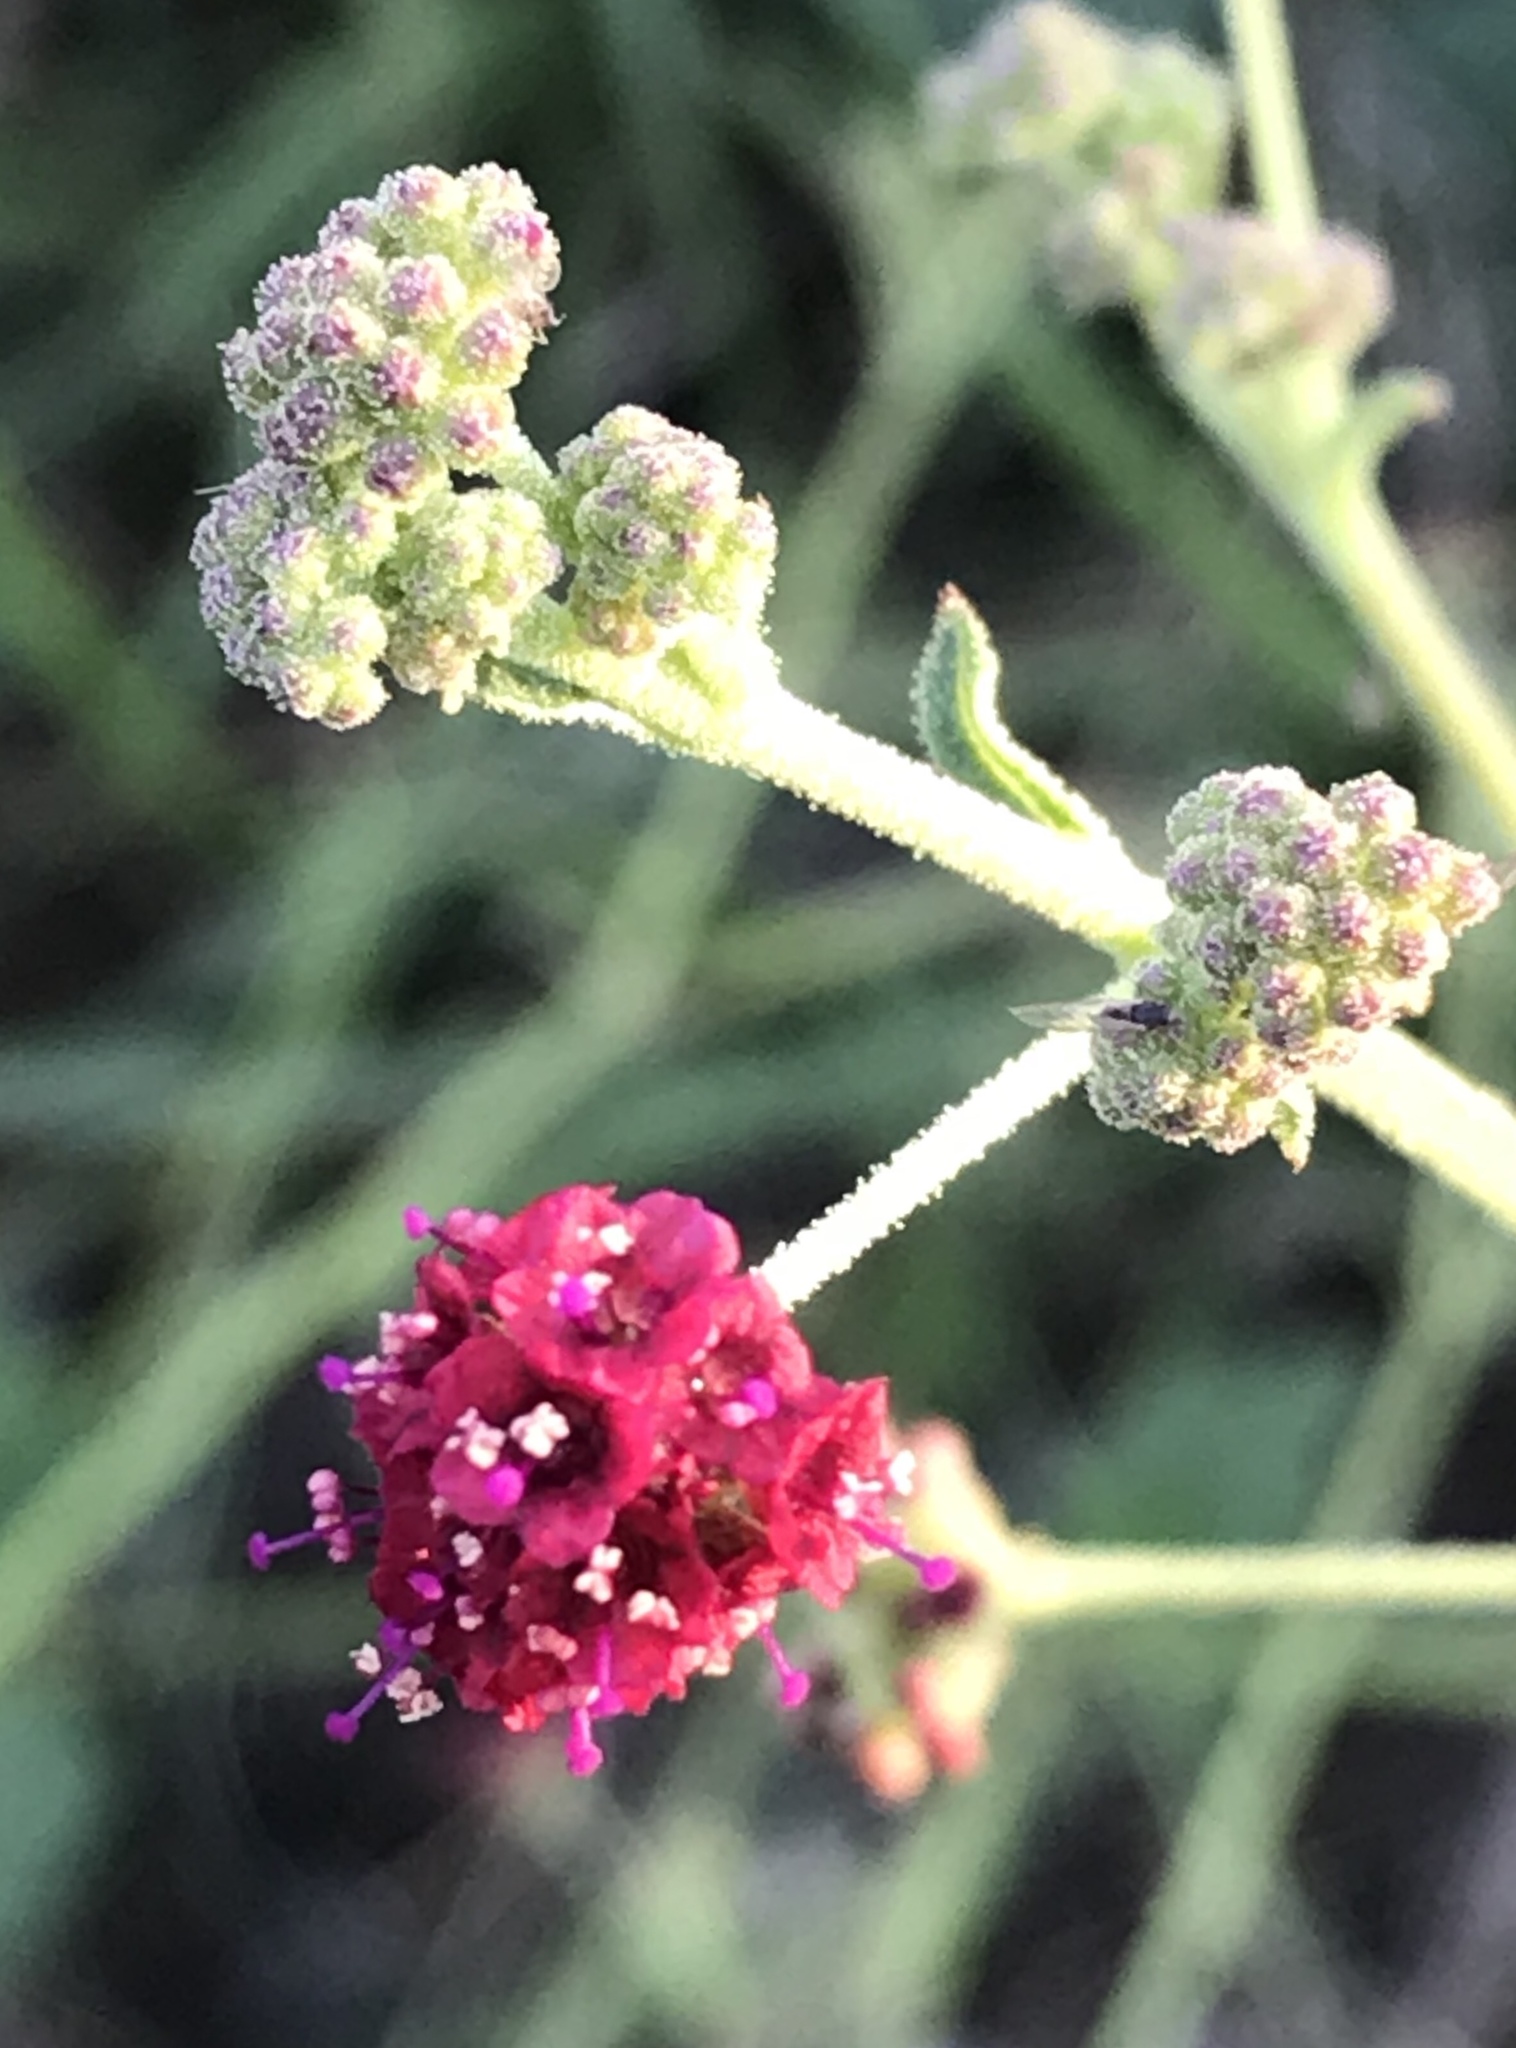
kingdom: Plantae
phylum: Tracheophyta
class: Magnoliopsida
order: Caryophyllales
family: Nyctaginaceae
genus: Boerhavia
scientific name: Boerhavia coccinea
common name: Scarlet spiderling
